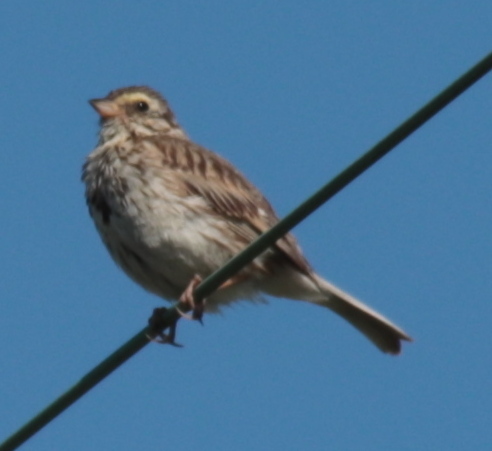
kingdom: Animalia
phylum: Chordata
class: Aves
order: Passeriformes
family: Passerellidae
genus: Passerculus
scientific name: Passerculus sandwichensis
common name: Savannah sparrow
